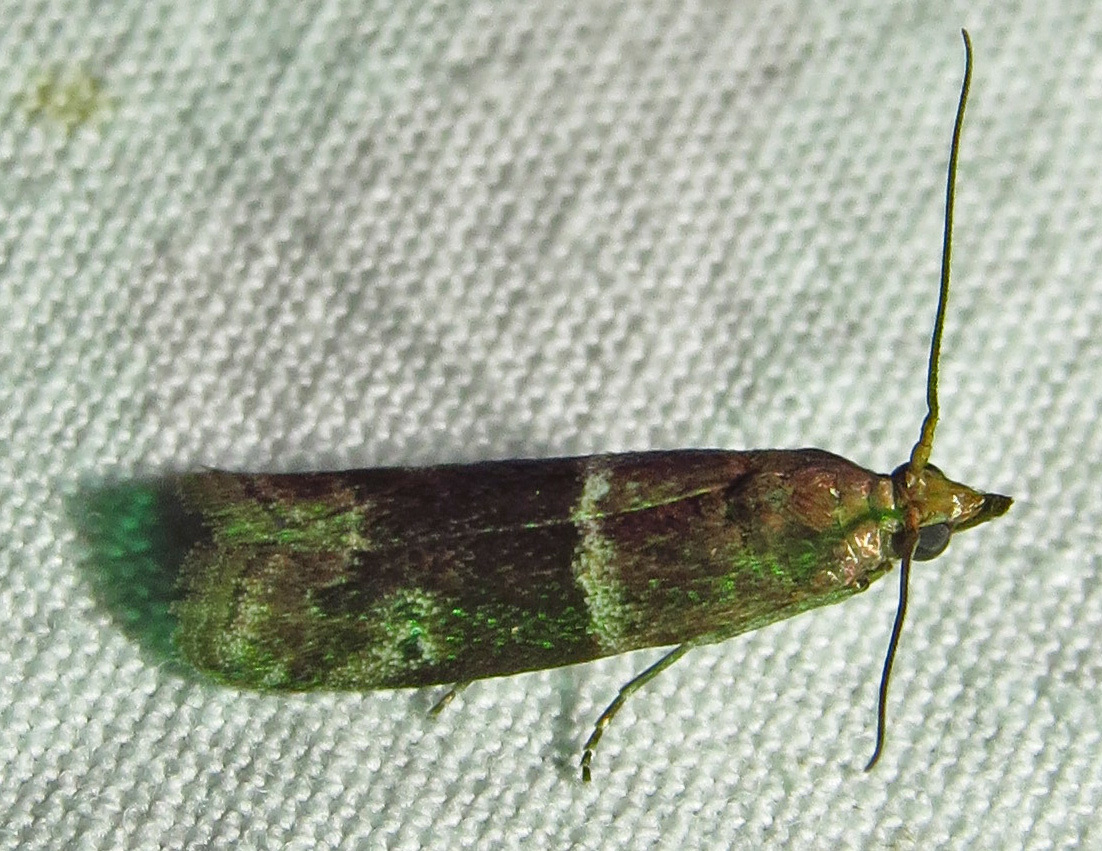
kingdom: Animalia
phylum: Arthropoda
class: Insecta
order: Lepidoptera
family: Pyralidae
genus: Moodna
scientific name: Moodna ostrinella
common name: Darker moodna moth
